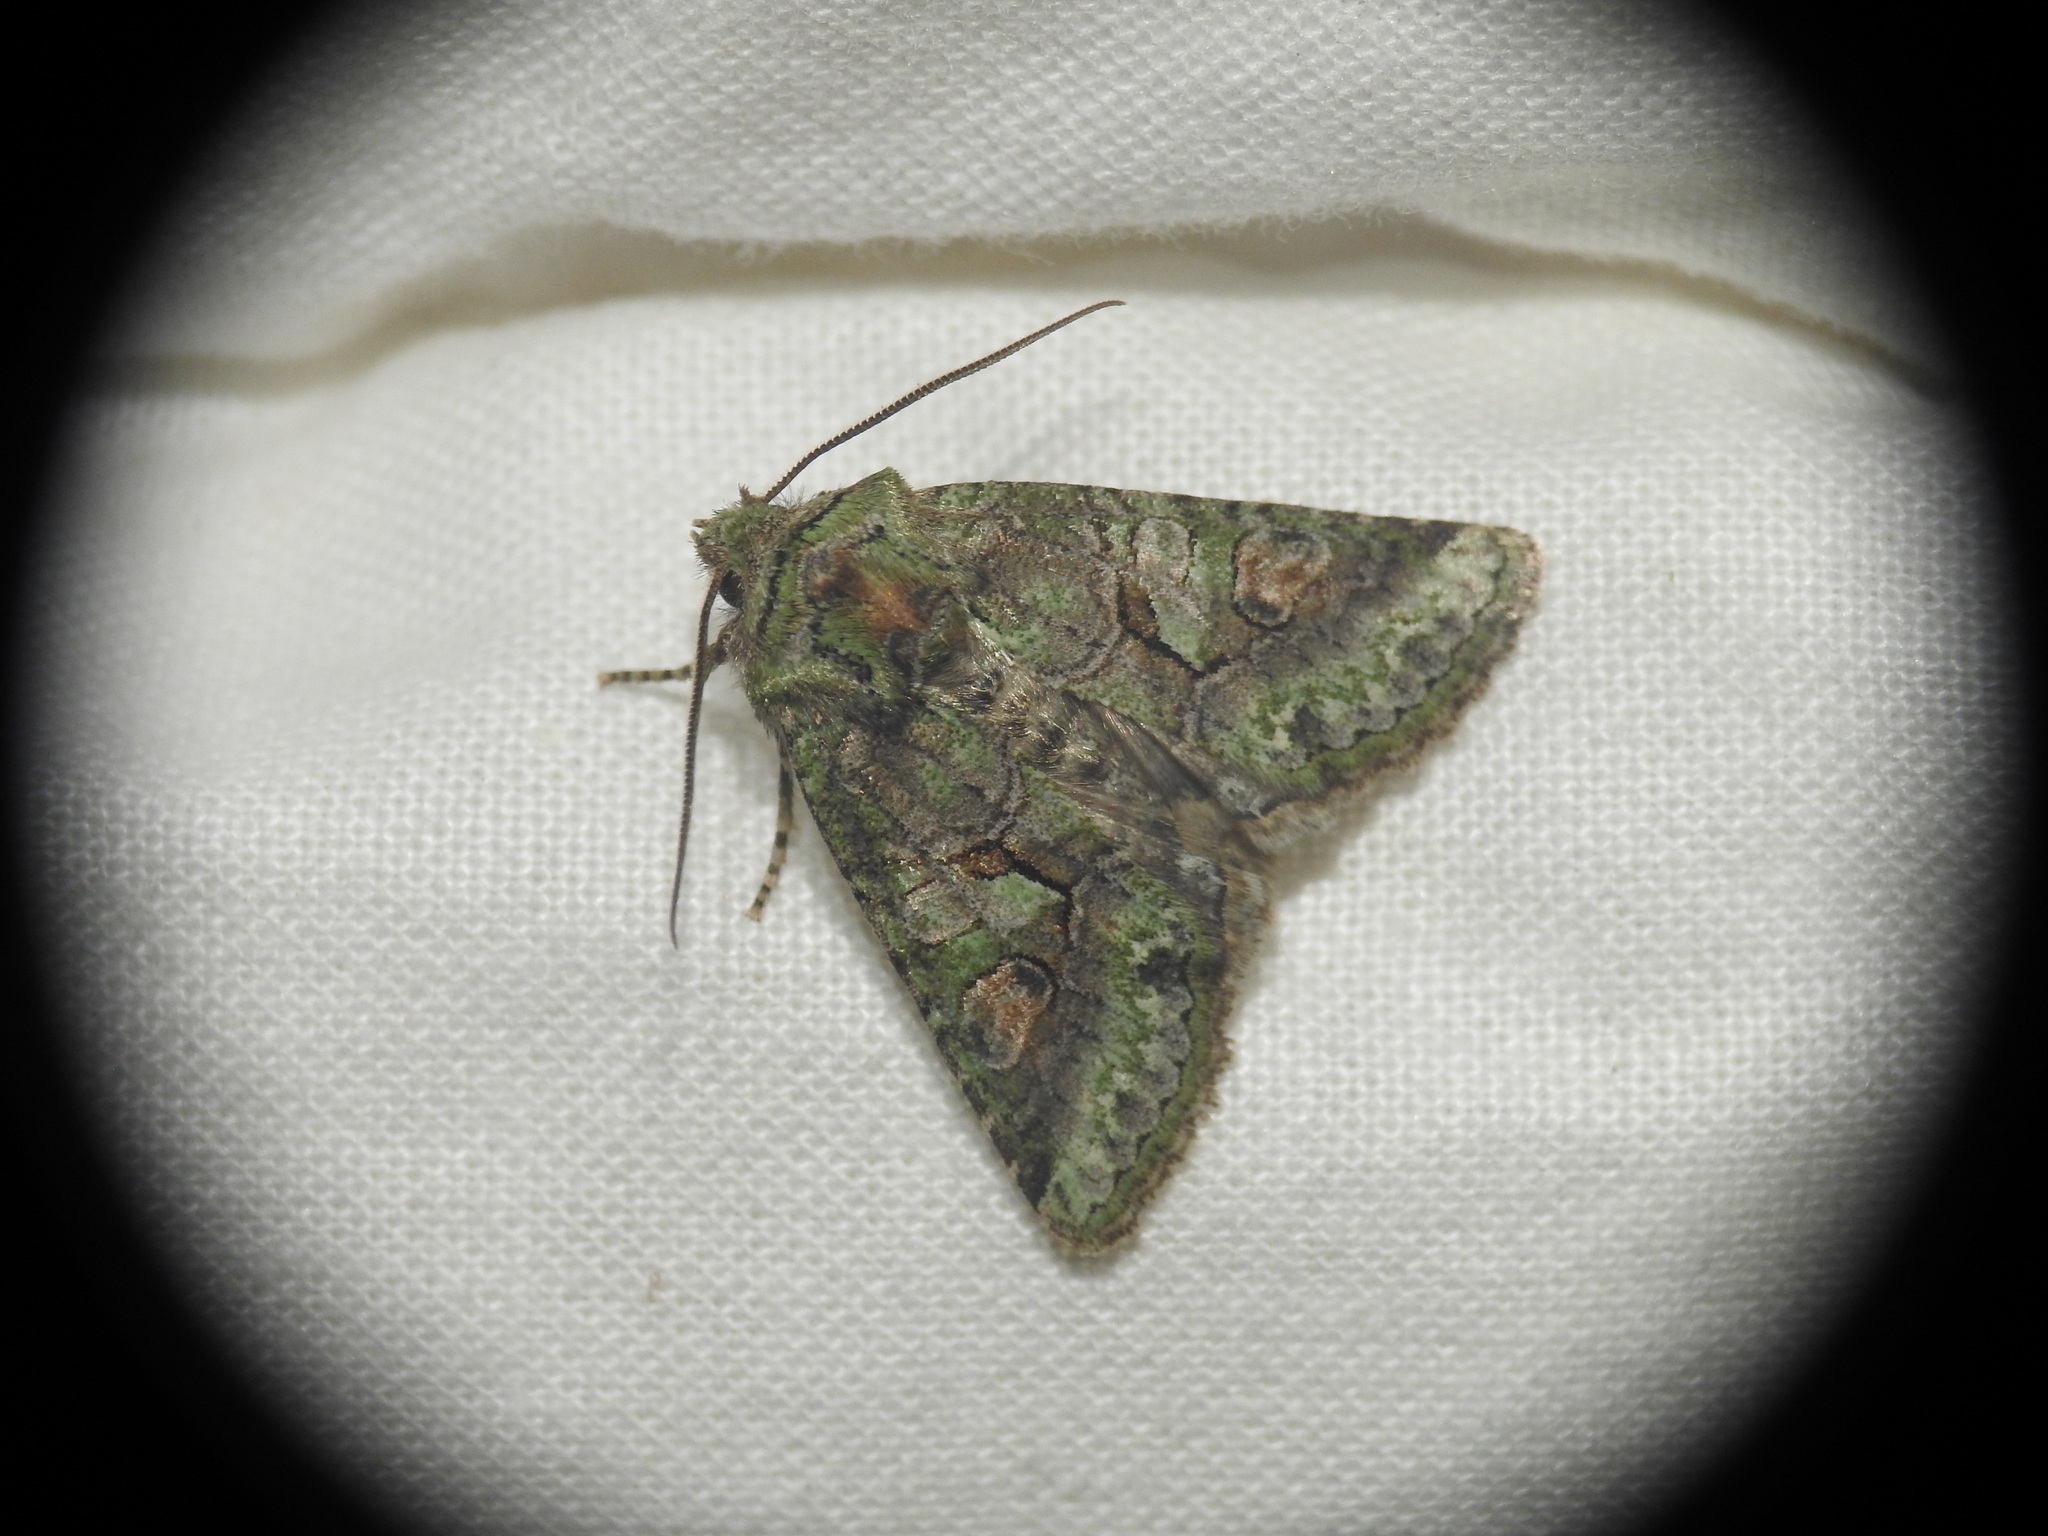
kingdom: Animalia
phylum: Arthropoda
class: Insecta
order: Lepidoptera
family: Noctuidae
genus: Dryobotodes
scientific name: Dryobotodes roboris
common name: Southern brindled green
